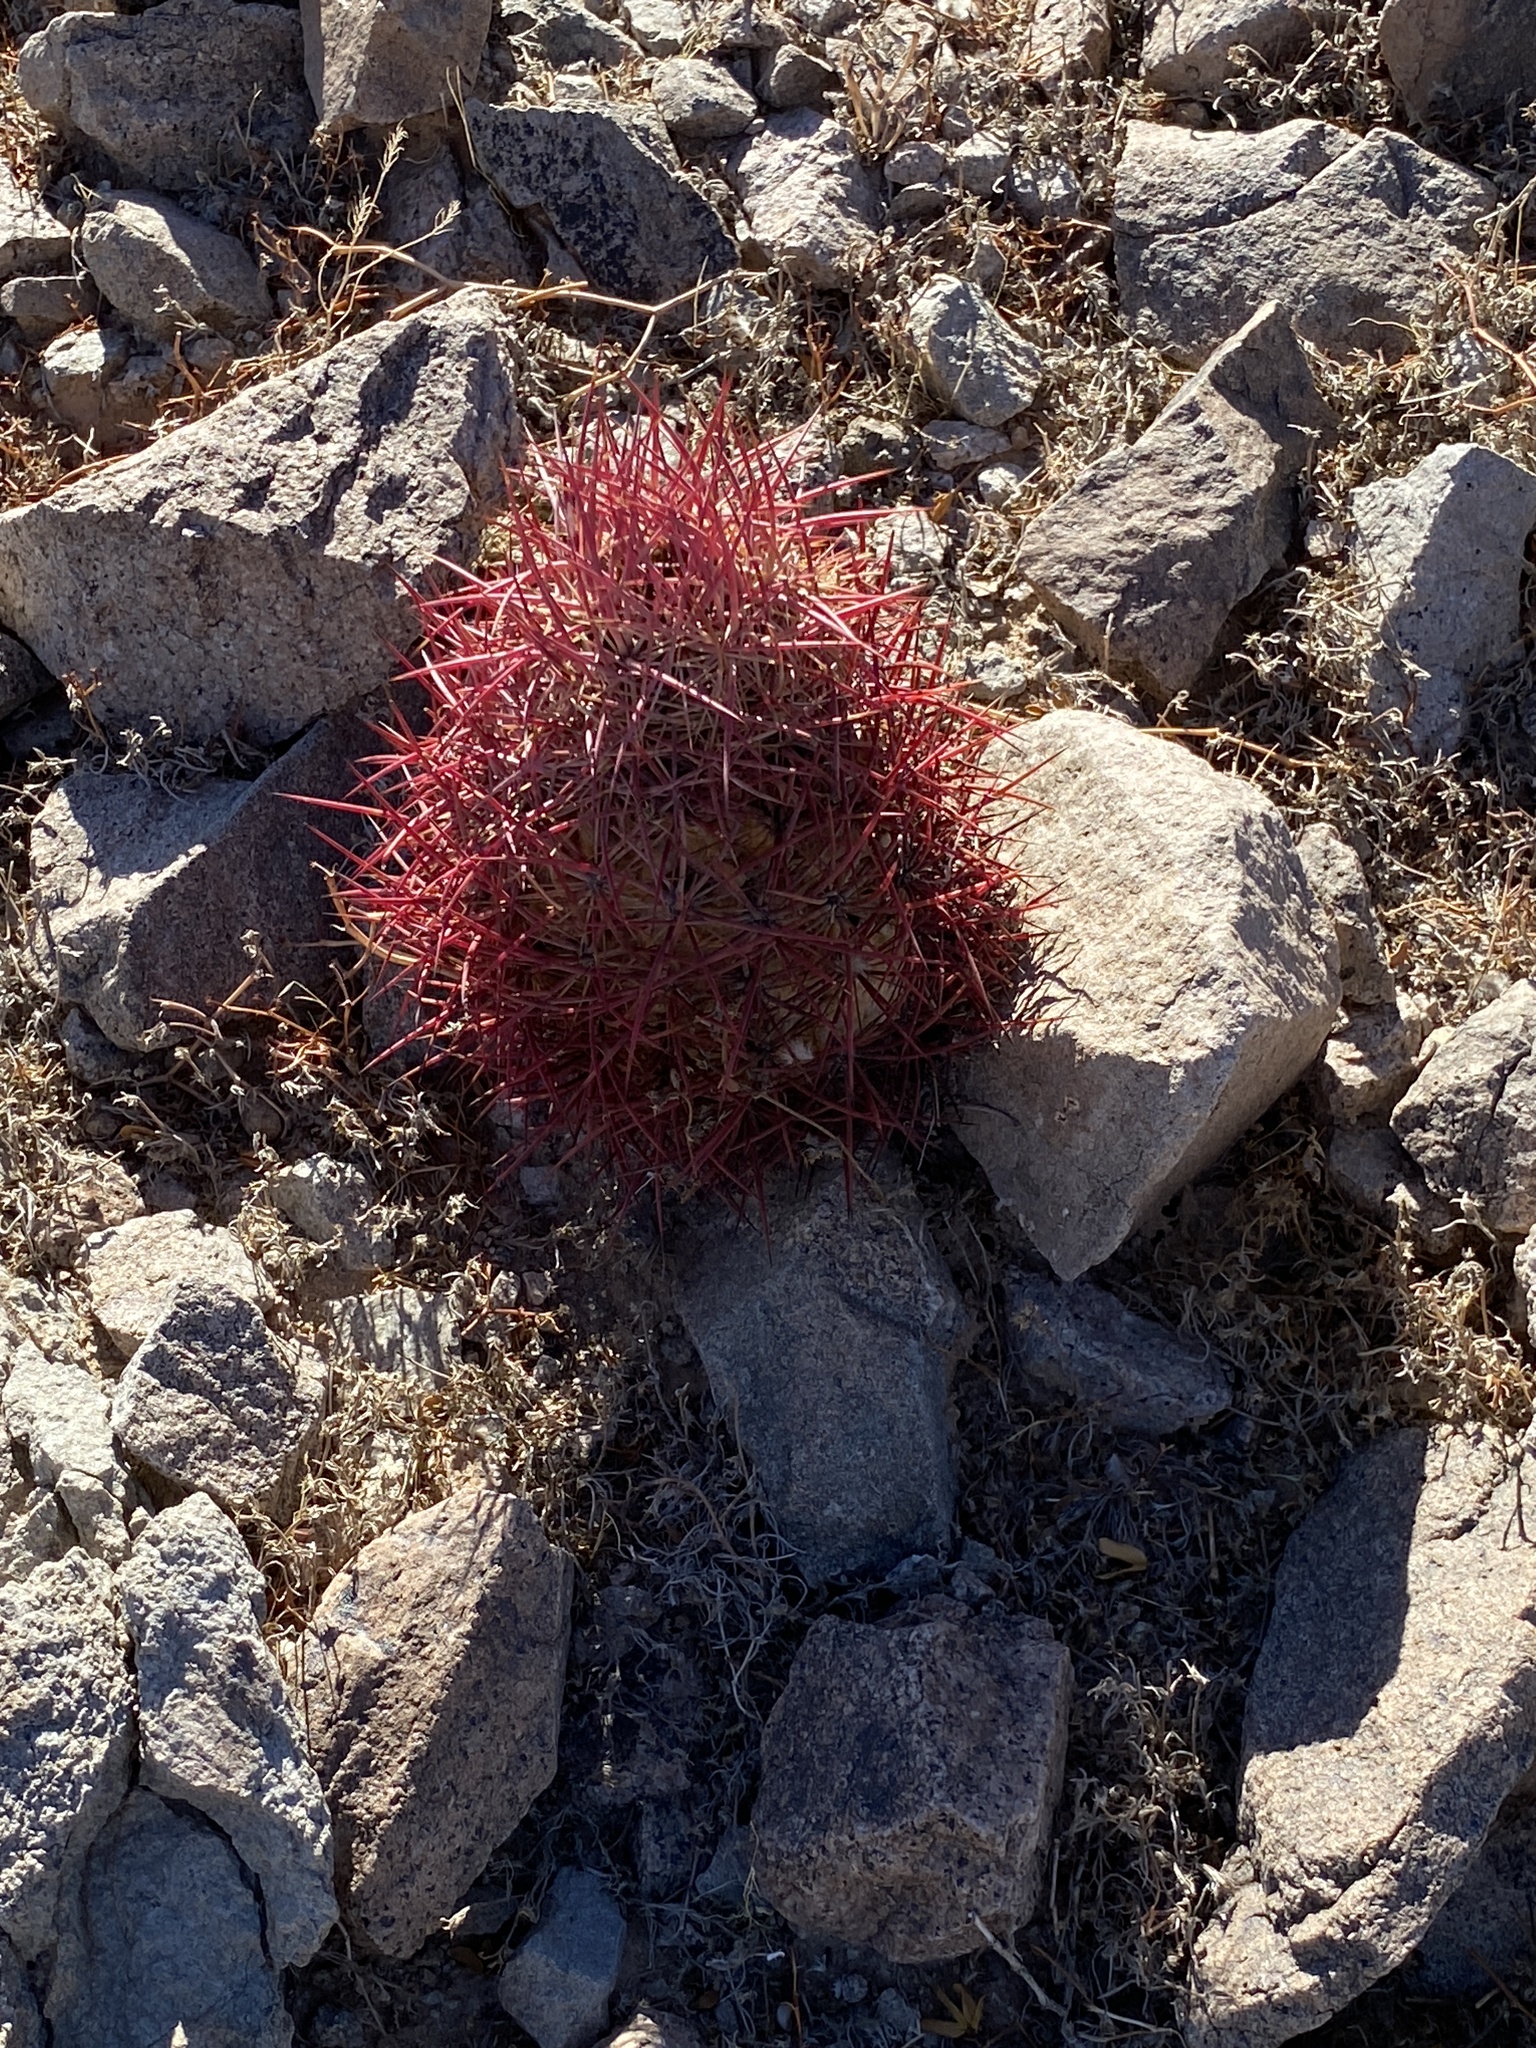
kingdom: Plantae
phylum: Tracheophyta
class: Magnoliopsida
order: Caryophyllales
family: Cactaceae
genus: Sclerocactus
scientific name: Sclerocactus johnsonii
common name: Eight-spine fishhook cactus
